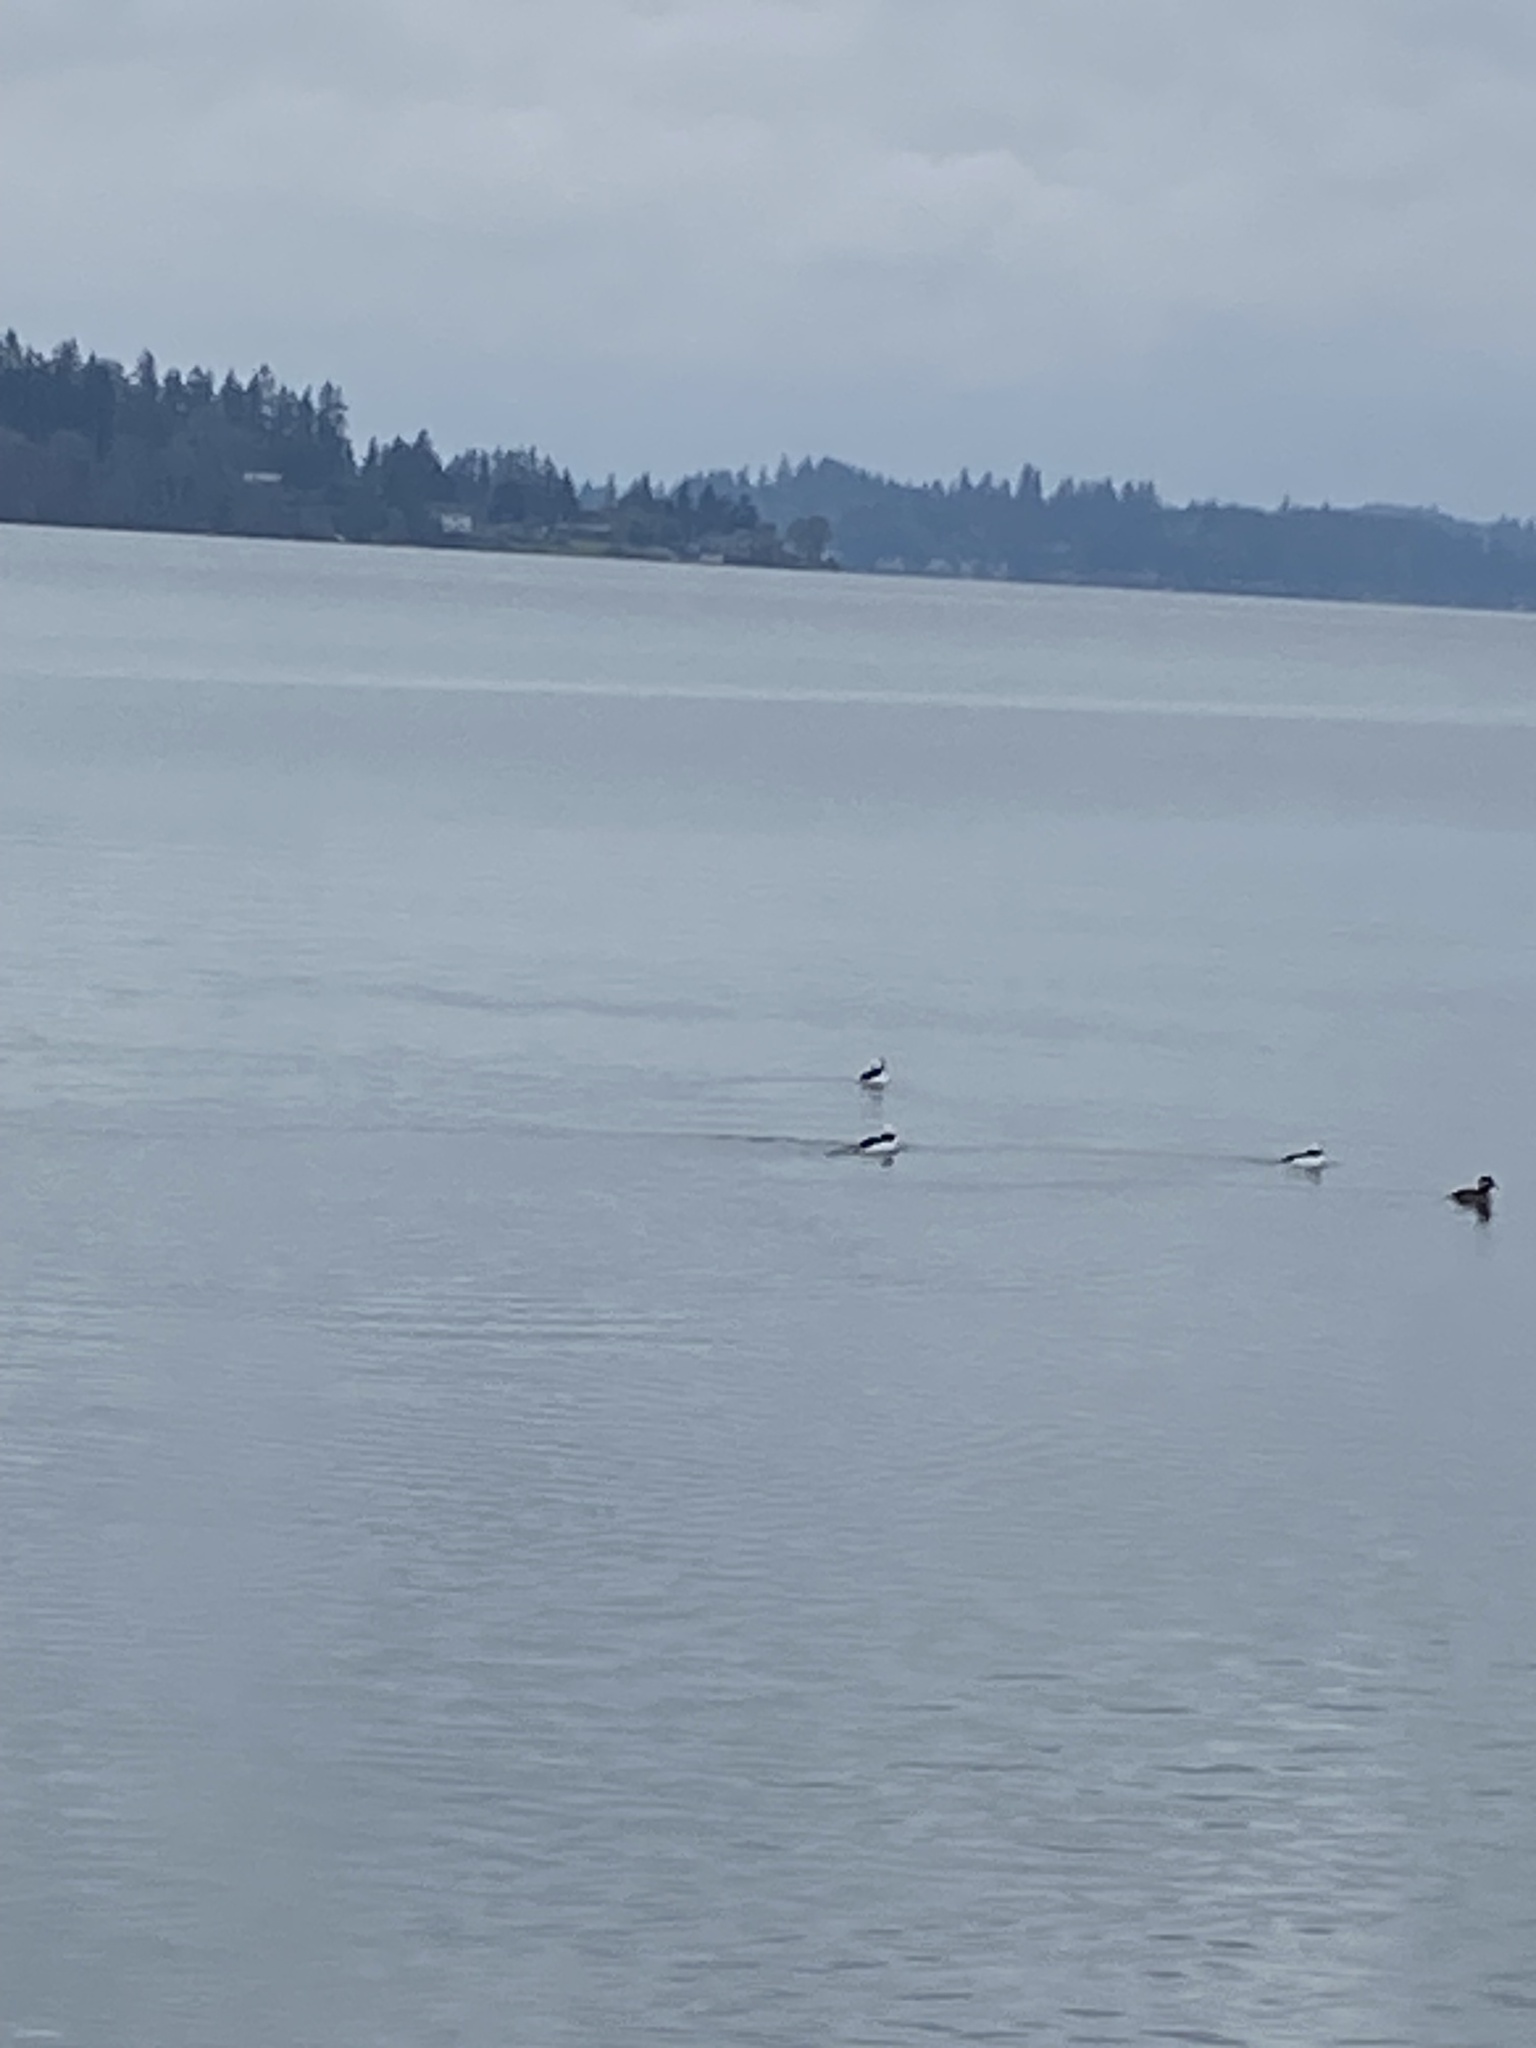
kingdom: Animalia
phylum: Chordata
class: Aves
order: Anseriformes
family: Anatidae
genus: Bucephala
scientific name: Bucephala albeola
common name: Bufflehead
